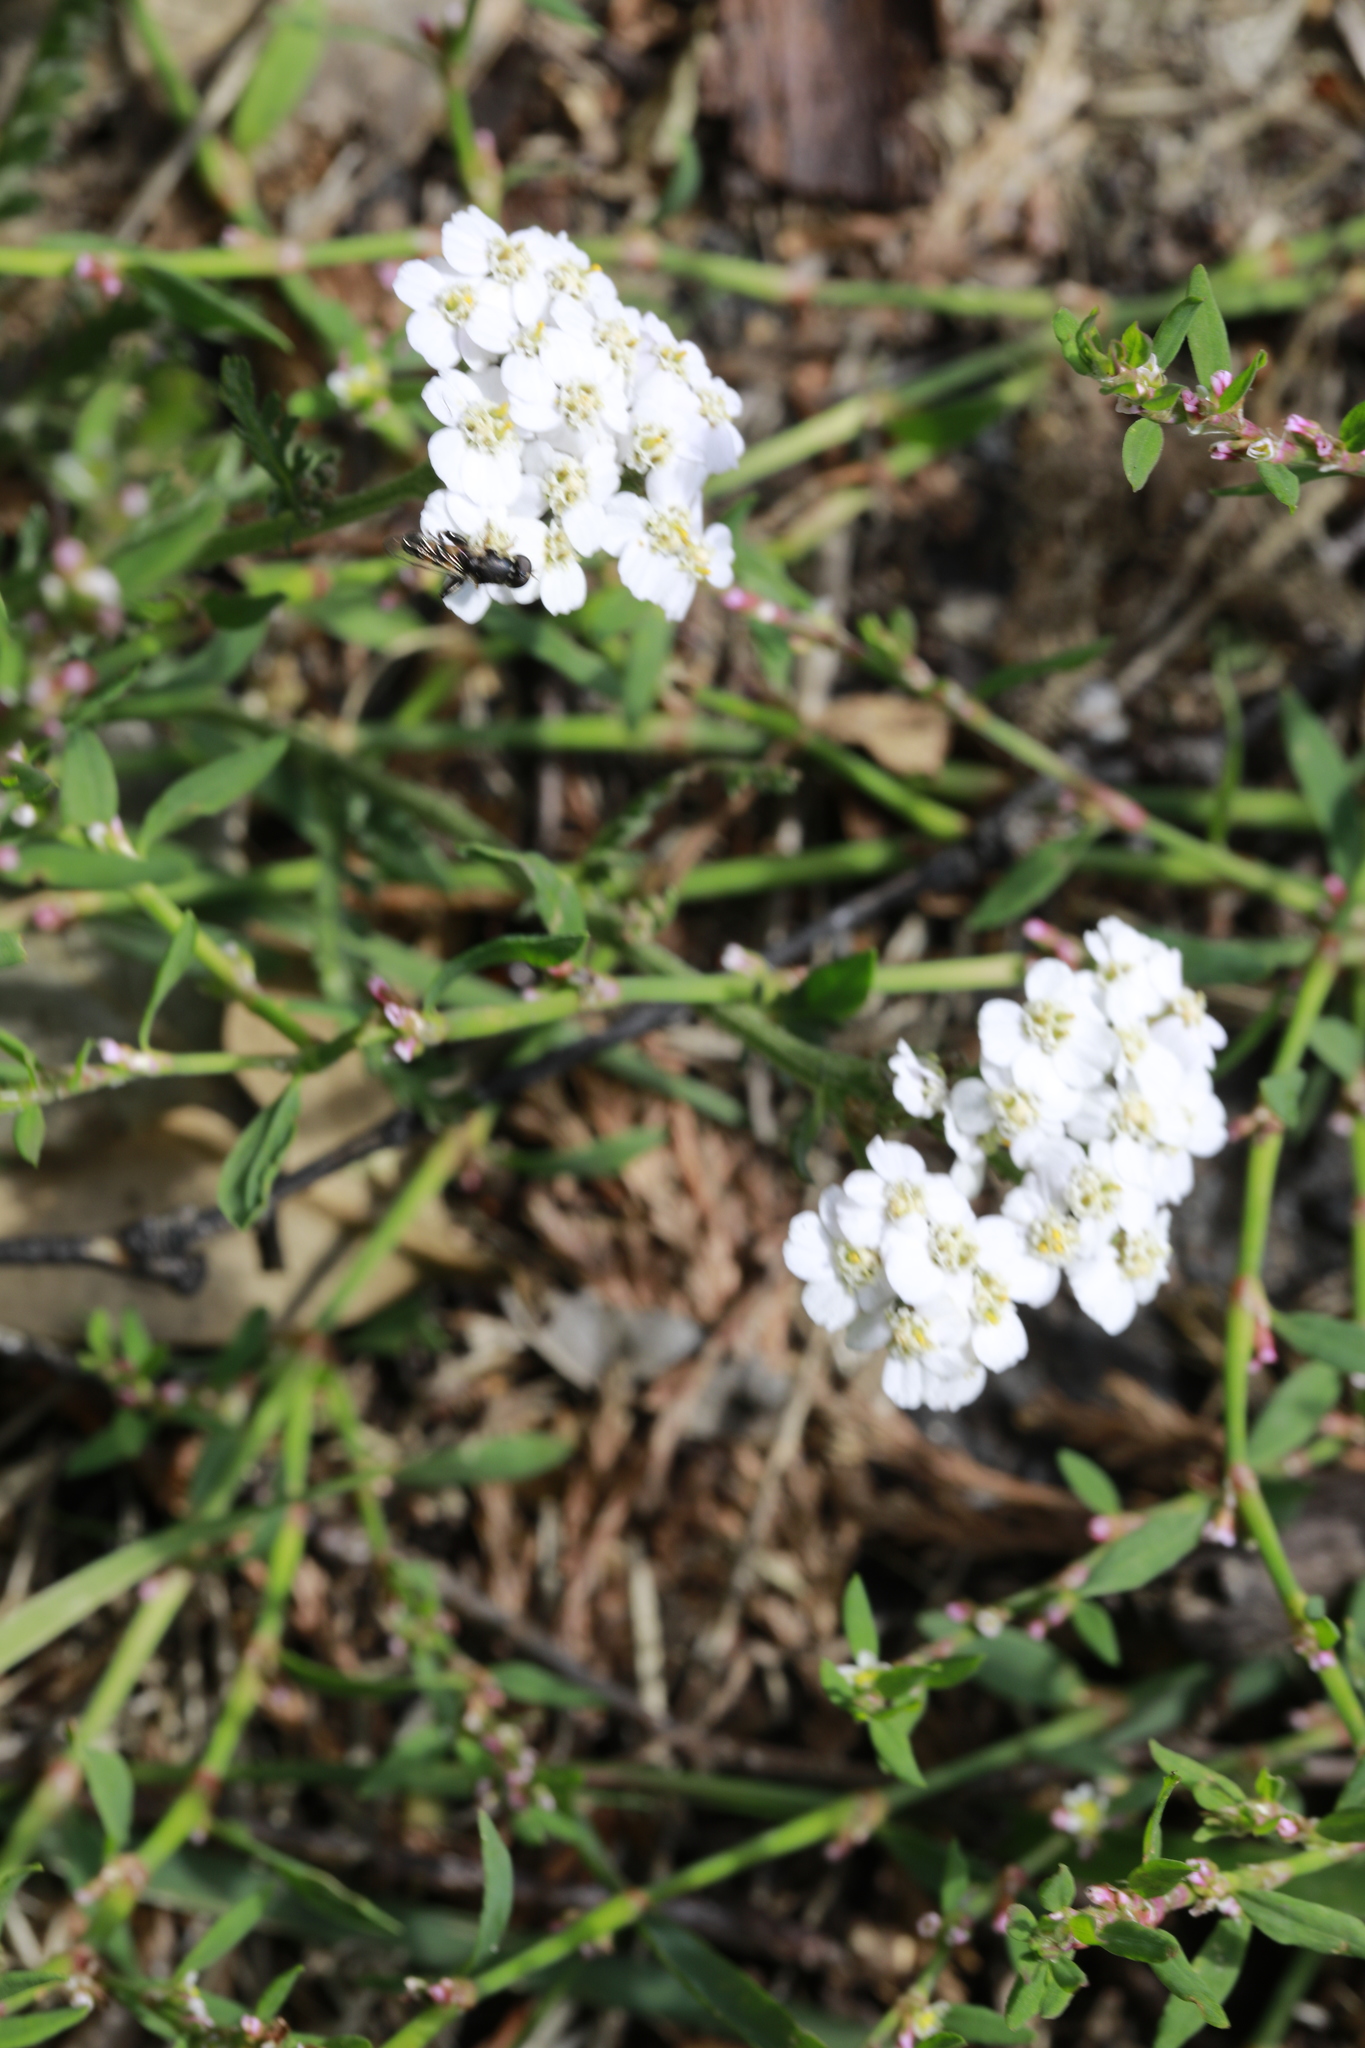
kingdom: Plantae
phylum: Tracheophyta
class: Magnoliopsida
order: Asterales
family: Asteraceae
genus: Achillea
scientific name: Achillea millefolium
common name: Yarrow
